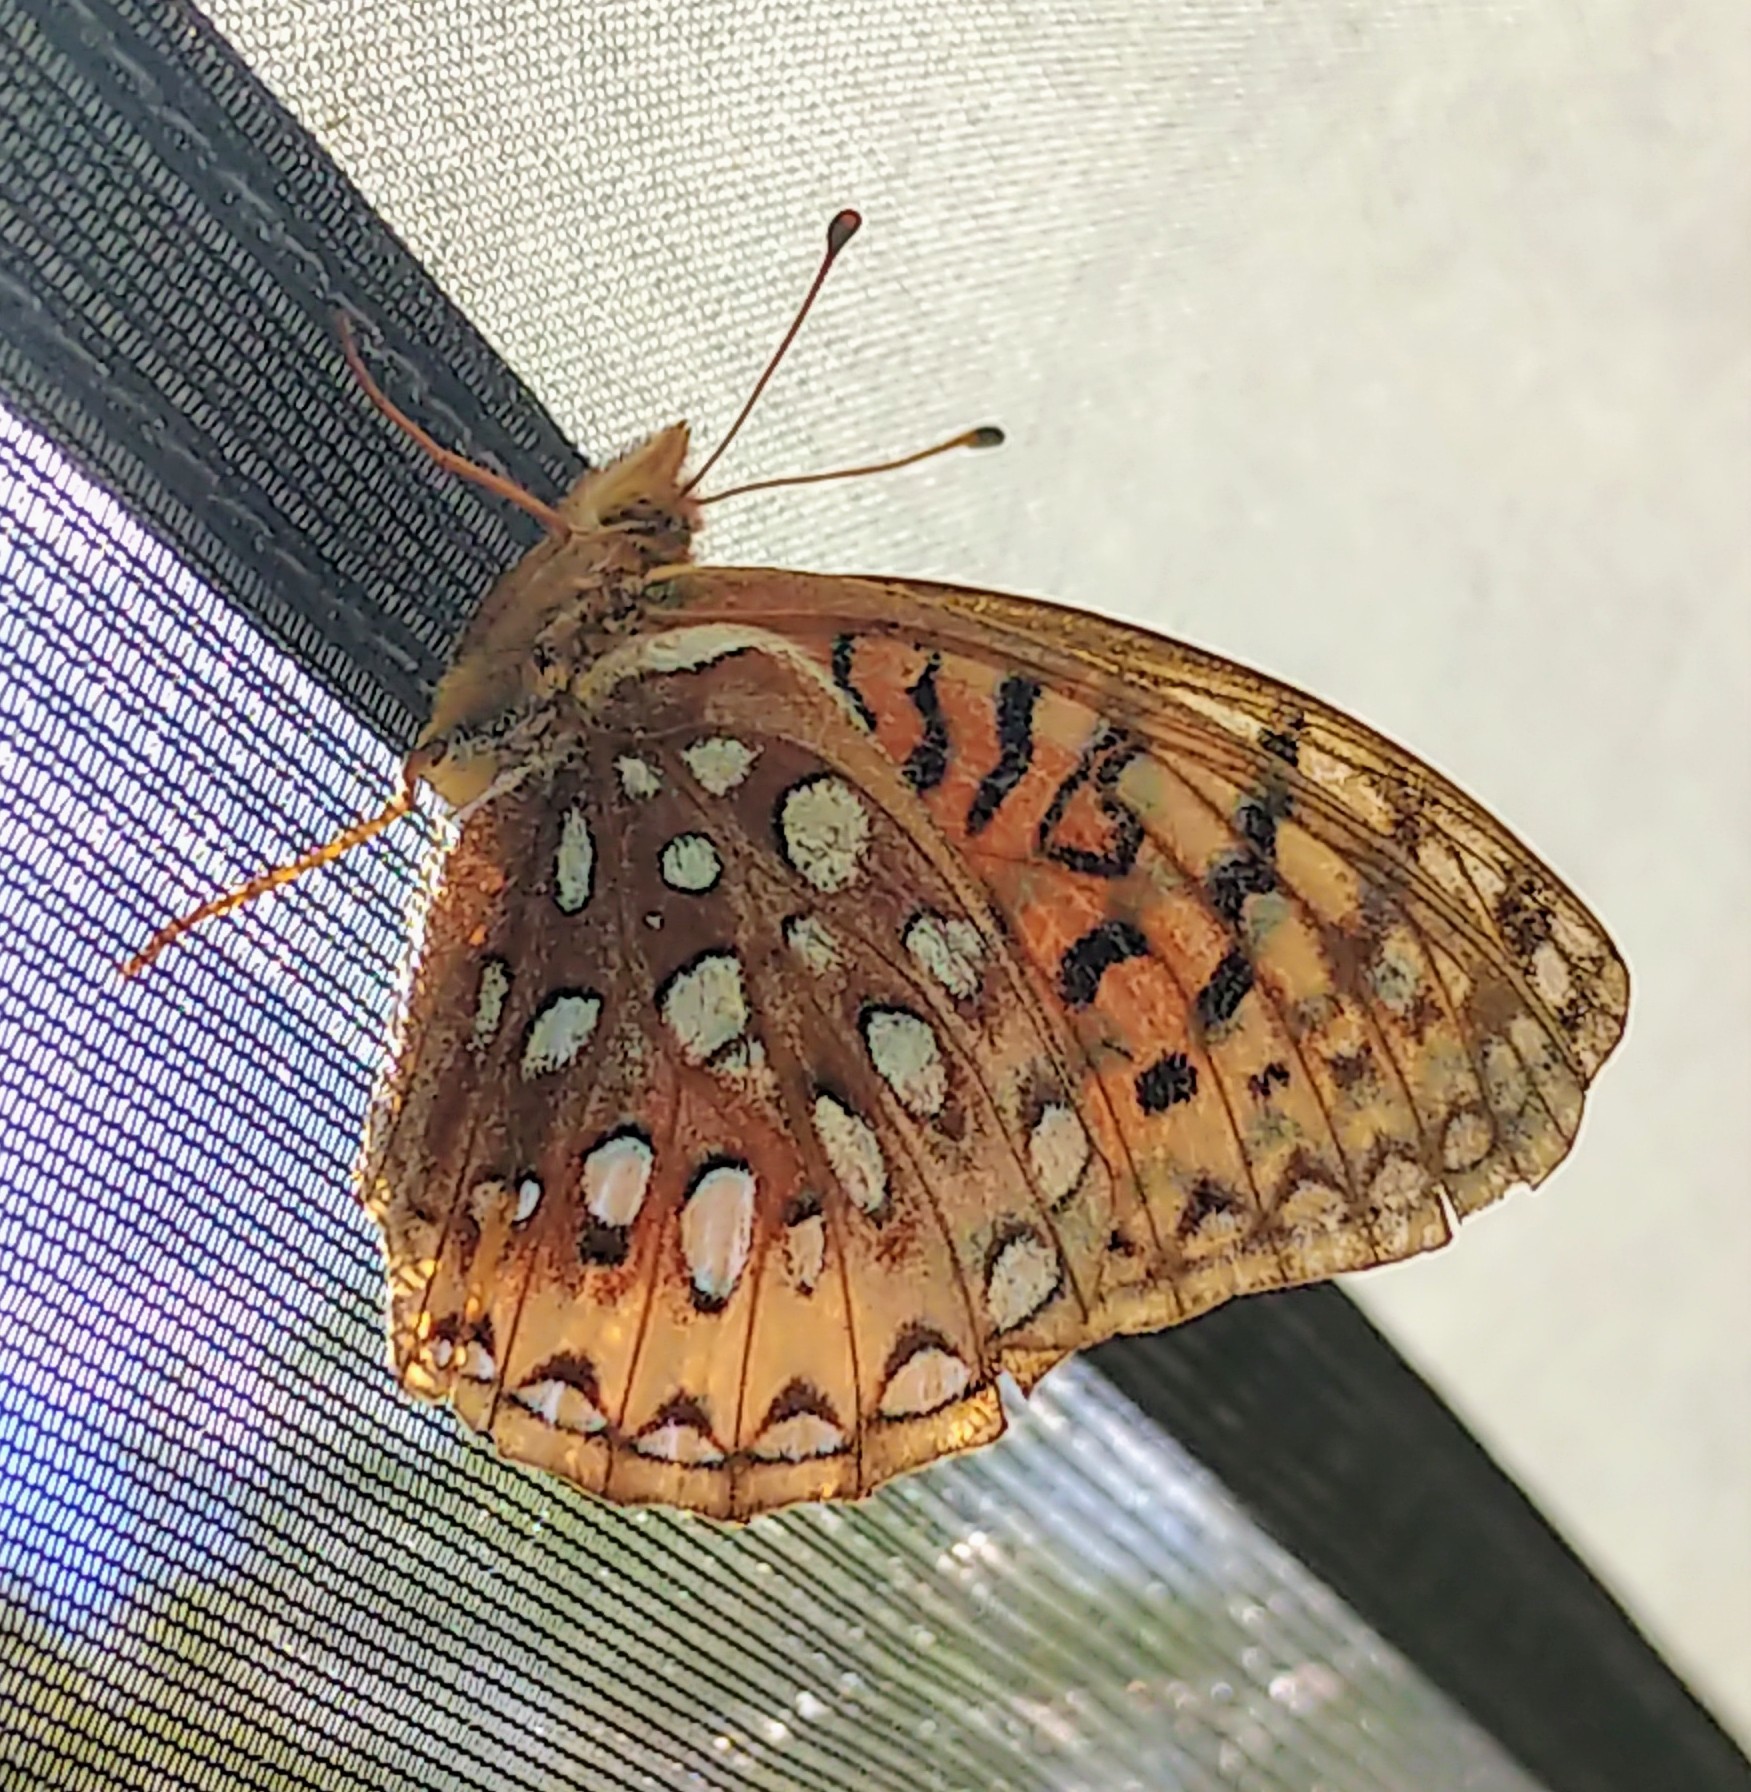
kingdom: Animalia
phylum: Arthropoda
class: Insecta
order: Lepidoptera
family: Nymphalidae
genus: Speyeria
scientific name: Speyeria cybele
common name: Great spangled fritillary
